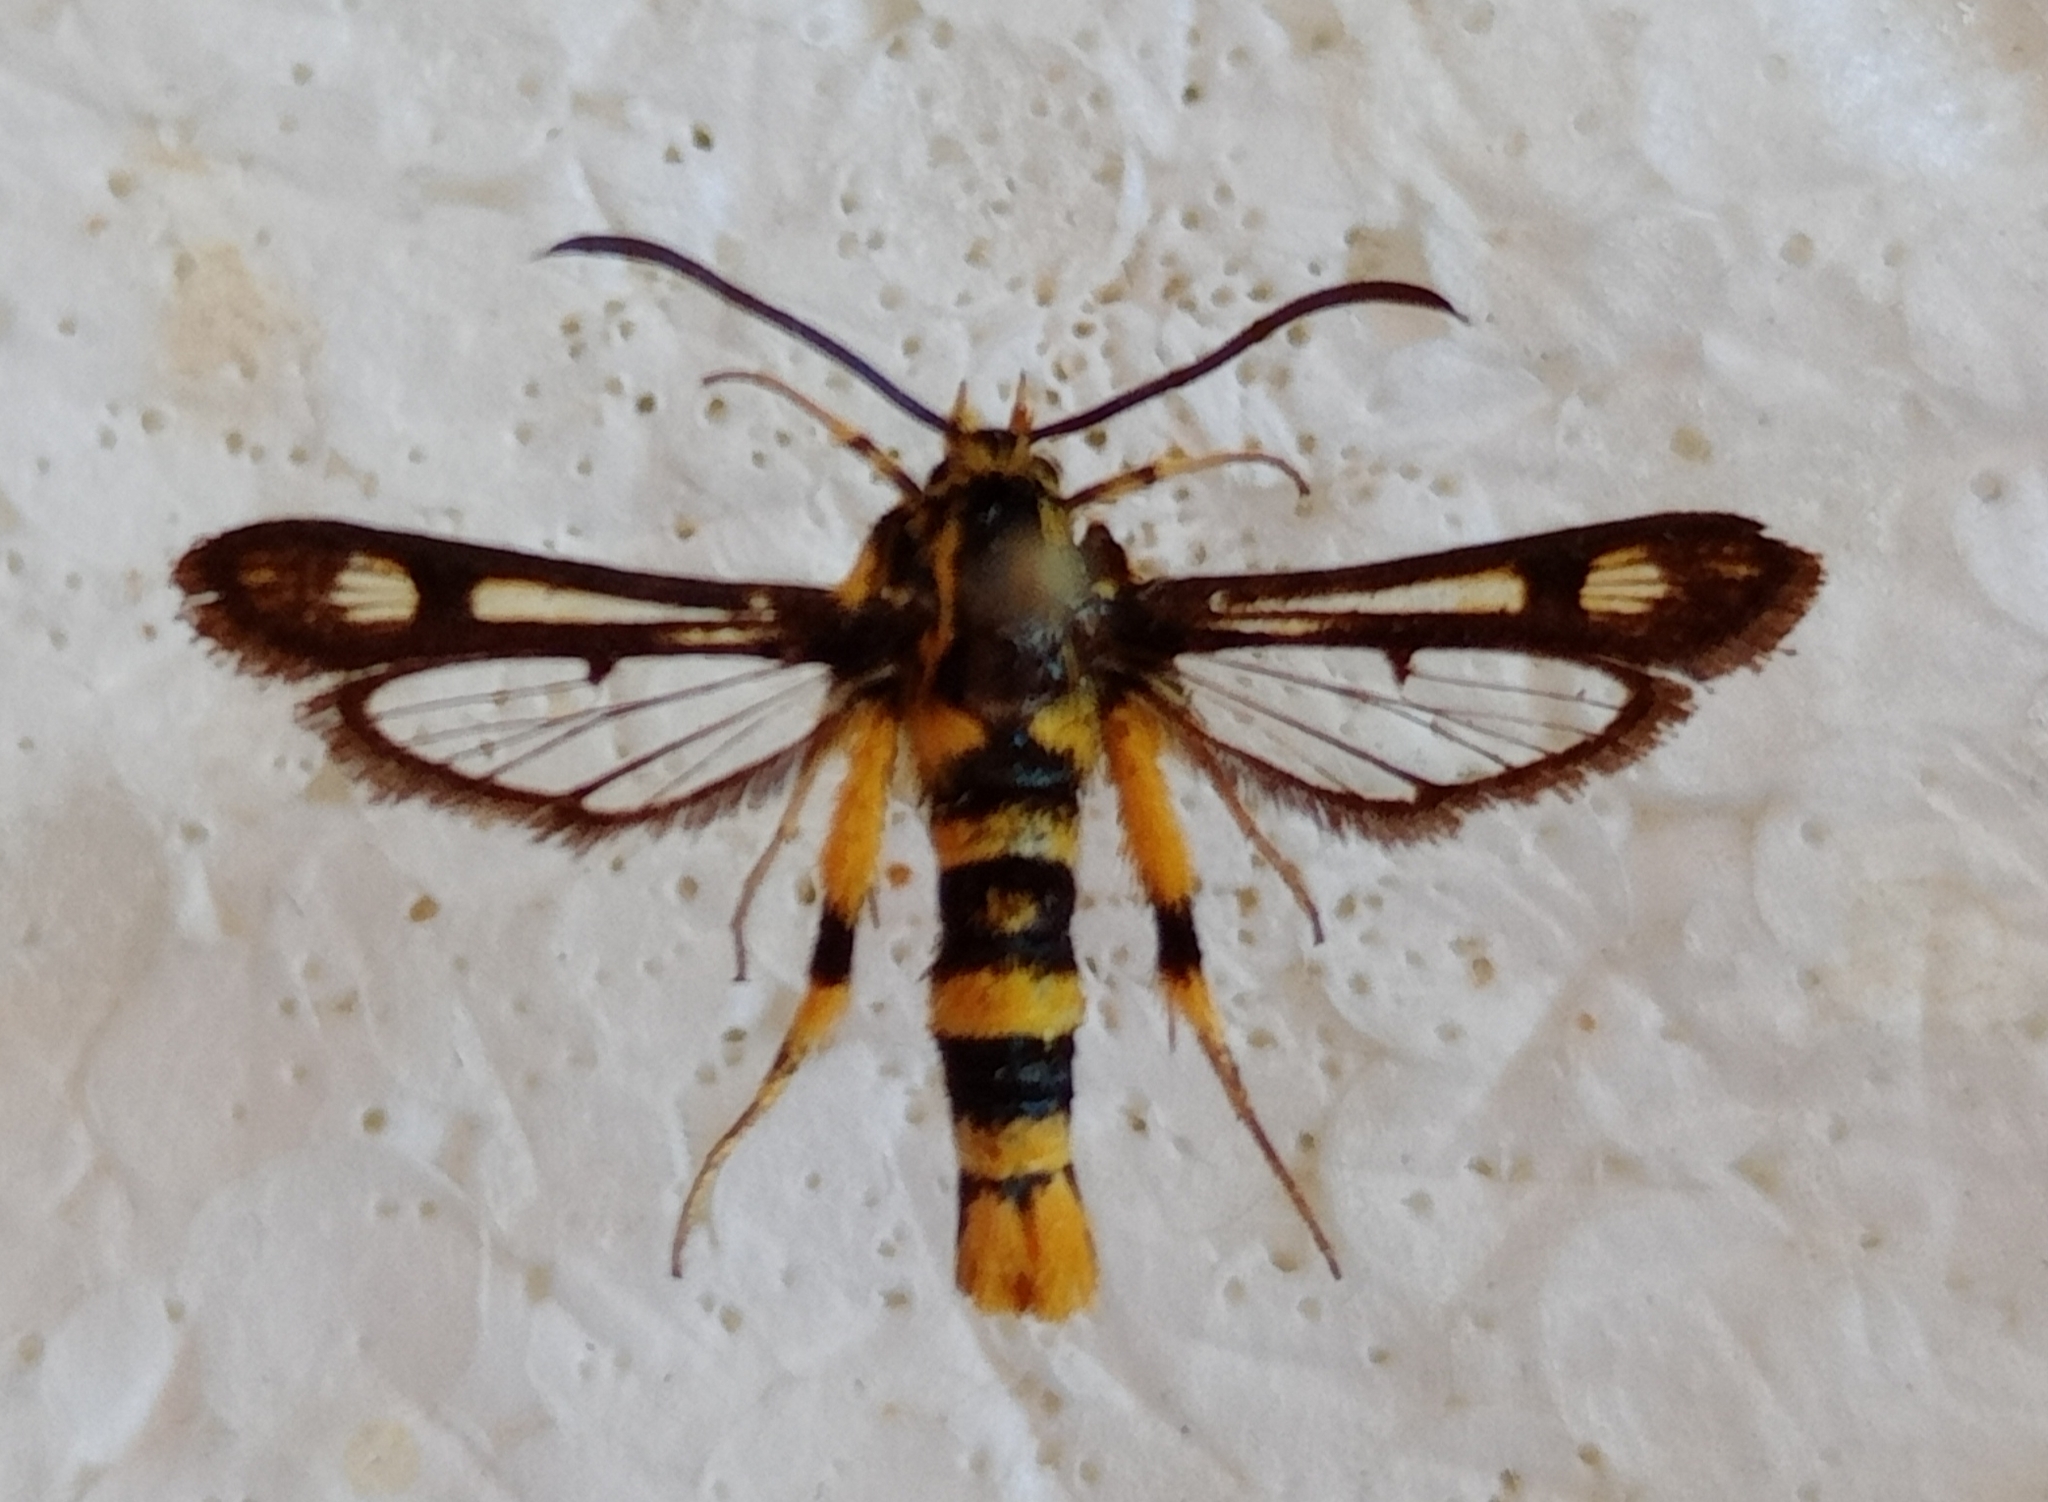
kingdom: Animalia
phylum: Arthropoda
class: Insecta
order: Lepidoptera
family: Sesiidae
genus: Chamaesphecia
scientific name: Chamaesphecia masariformis
